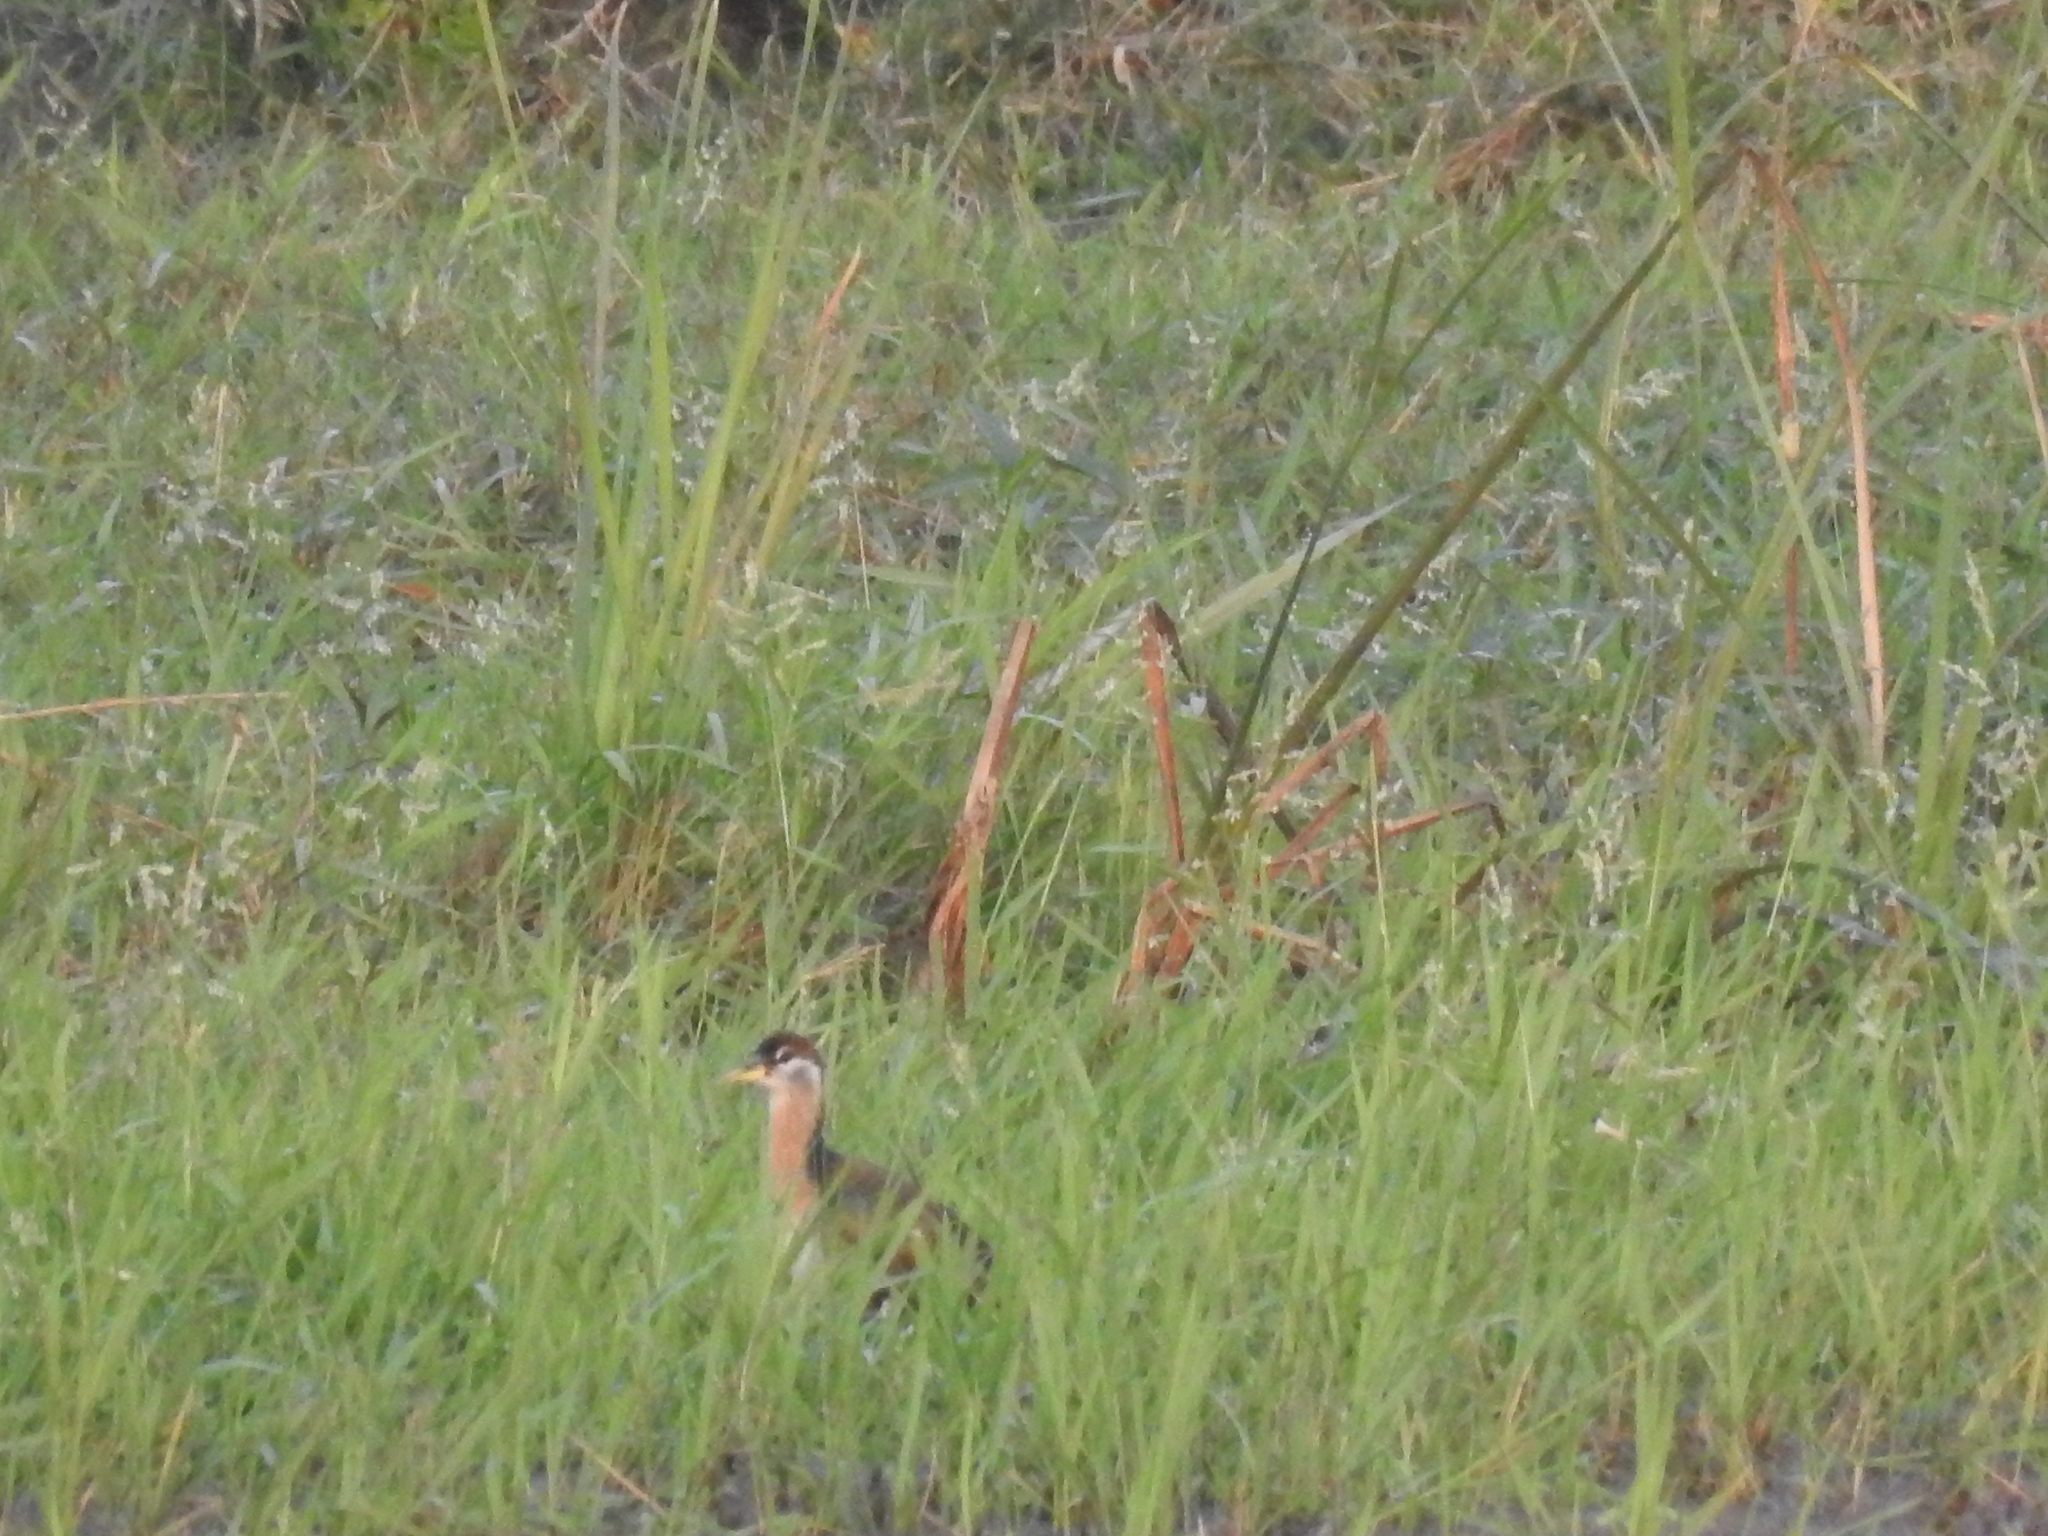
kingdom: Animalia
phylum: Chordata
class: Aves
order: Charadriiformes
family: Jacanidae
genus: Metopidius
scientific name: Metopidius indicus
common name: Bronze-winged jacana
